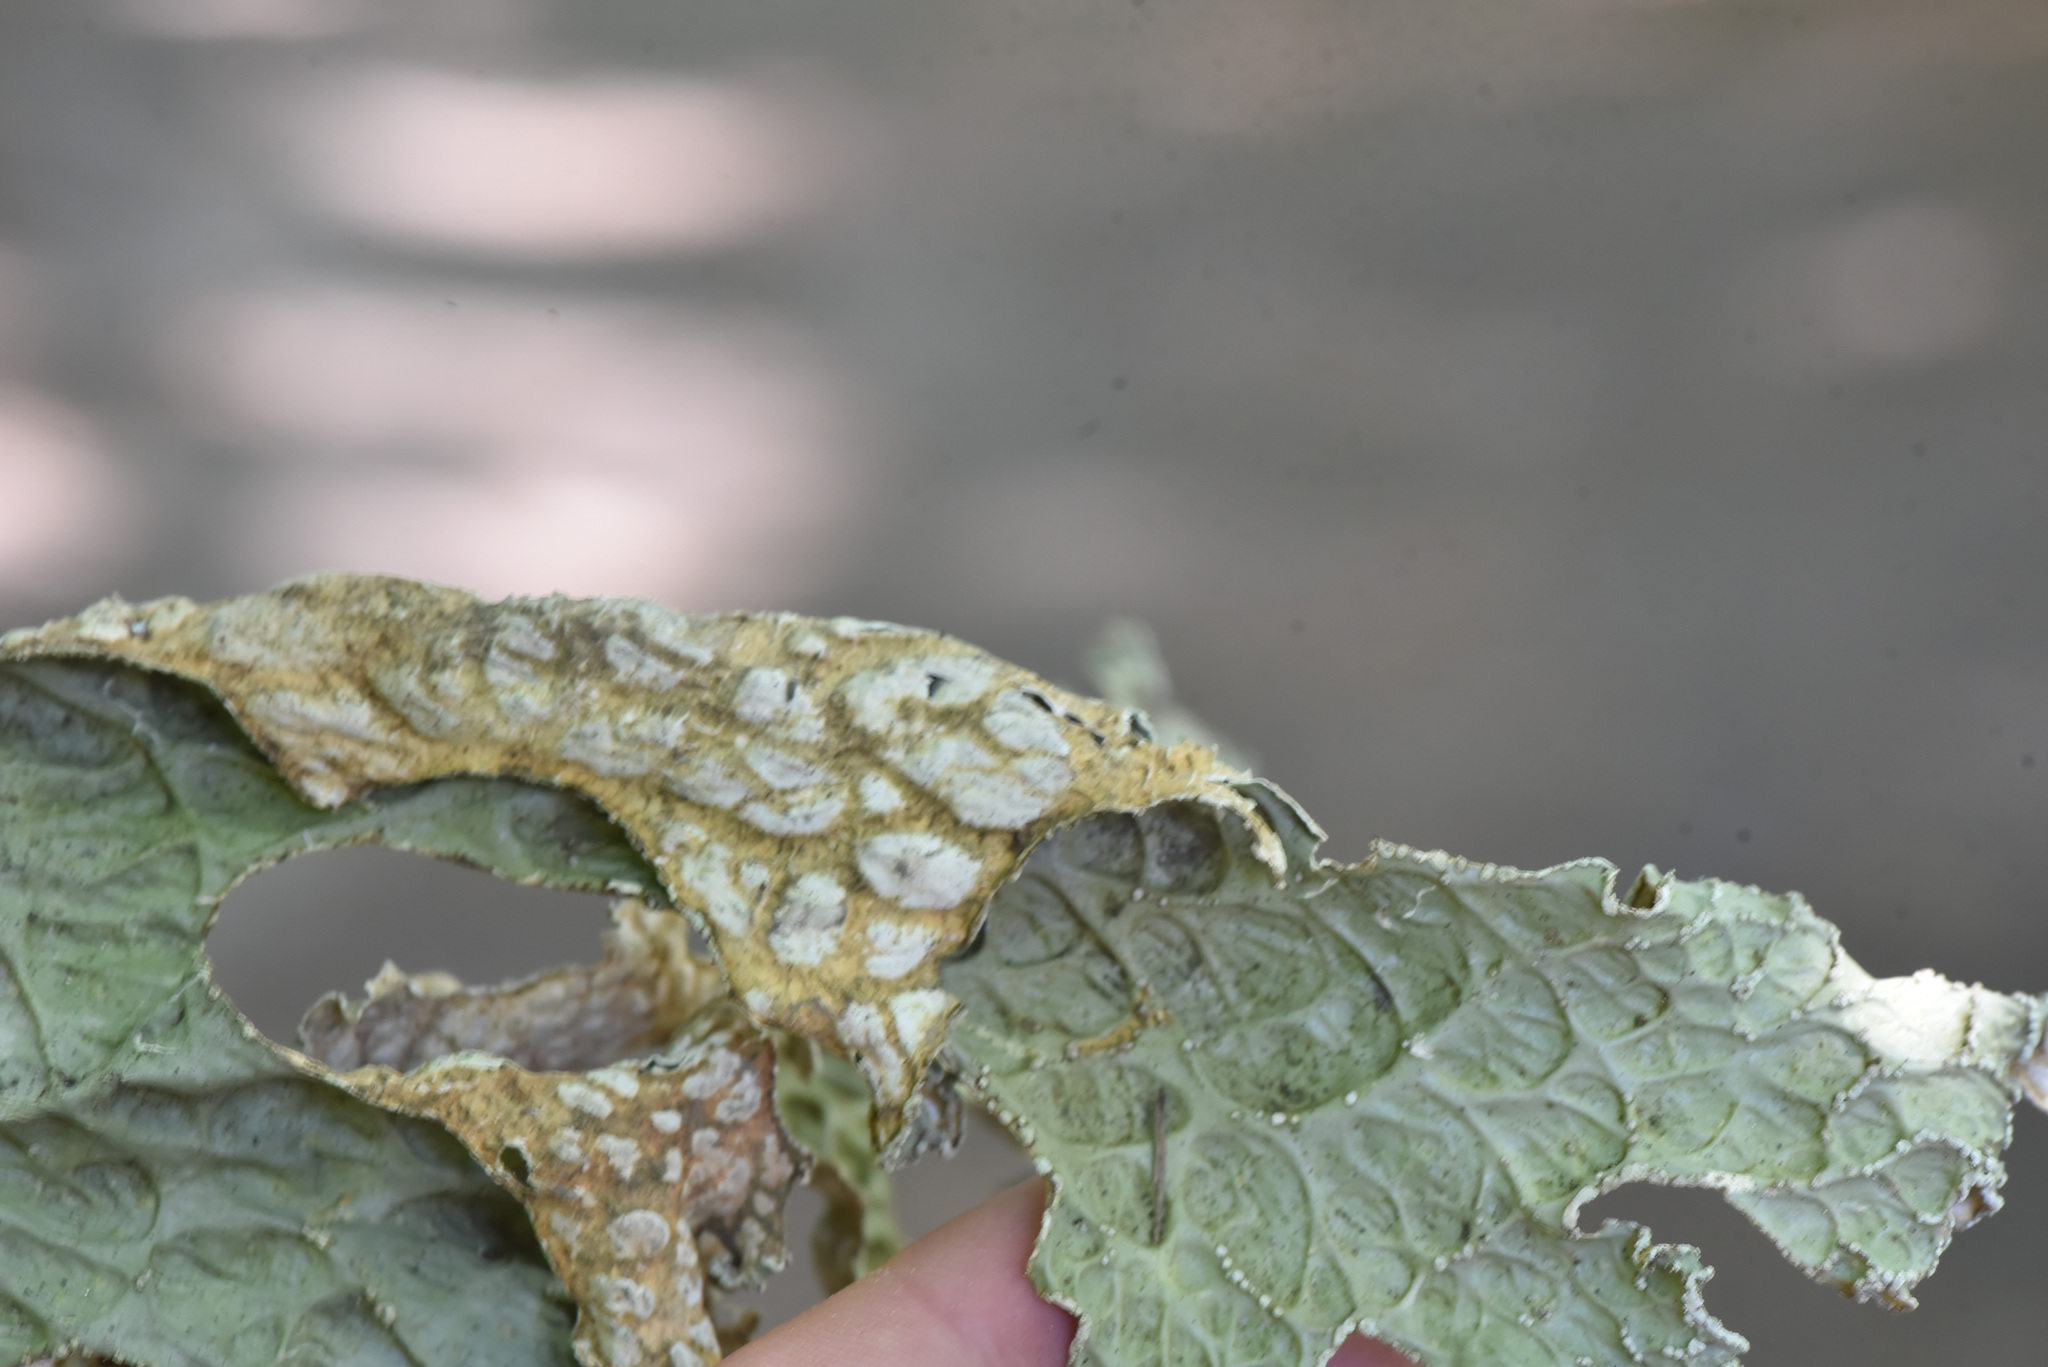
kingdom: Fungi
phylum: Ascomycota
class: Lecanoromycetes
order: Peltigerales
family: Lobariaceae
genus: Lobaria
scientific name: Lobaria pulmonaria
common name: Lungwort
